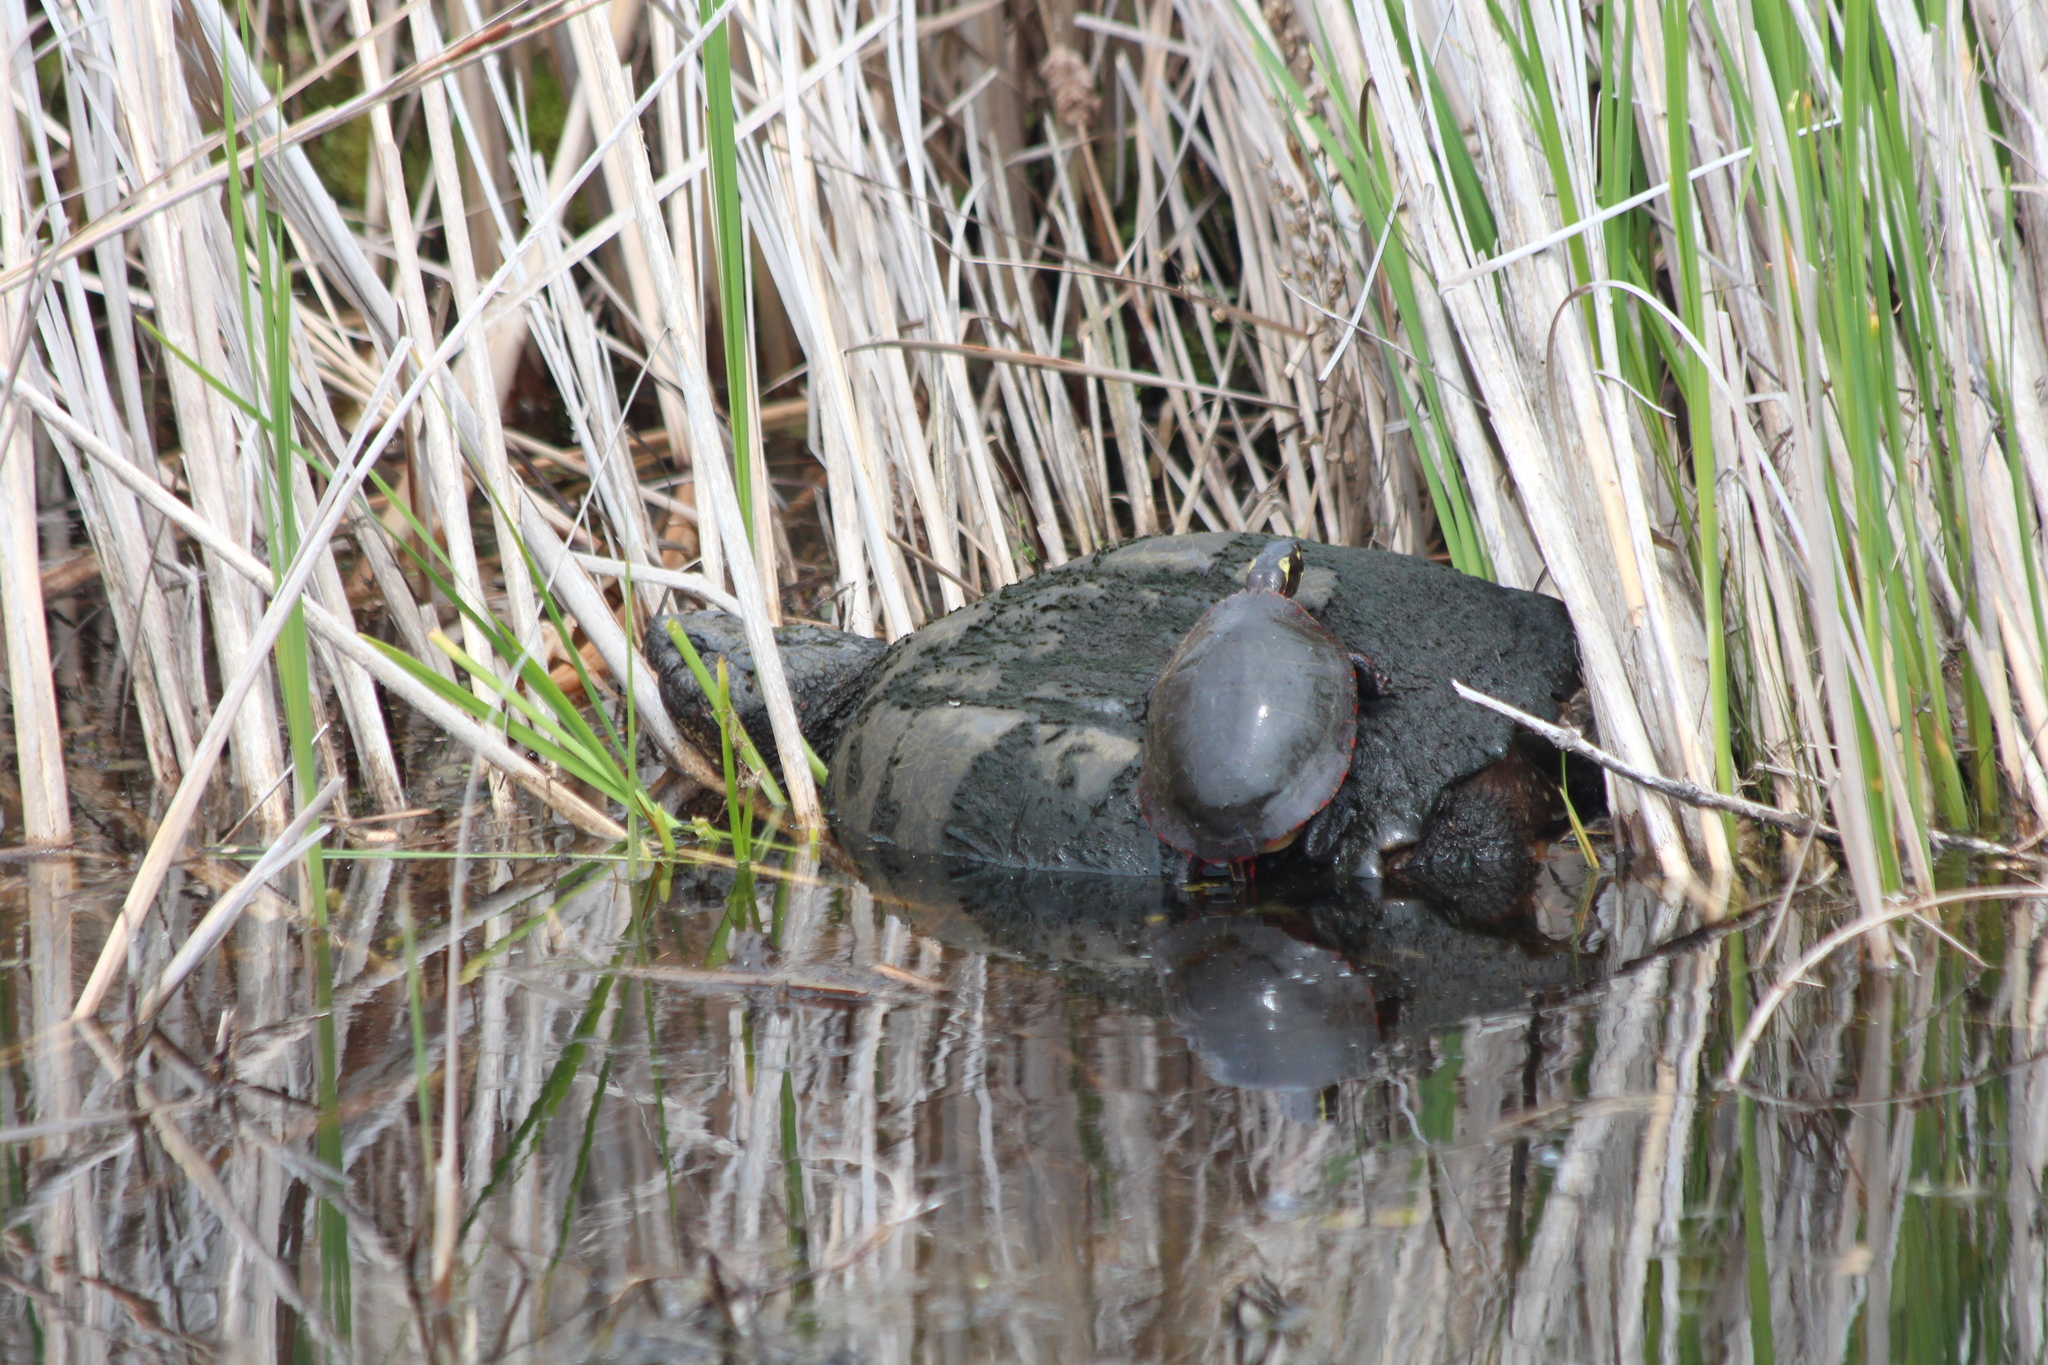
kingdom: Animalia
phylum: Chordata
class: Testudines
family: Chelydridae
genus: Chelydra
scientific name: Chelydra serpentina
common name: Common snapping turtle
